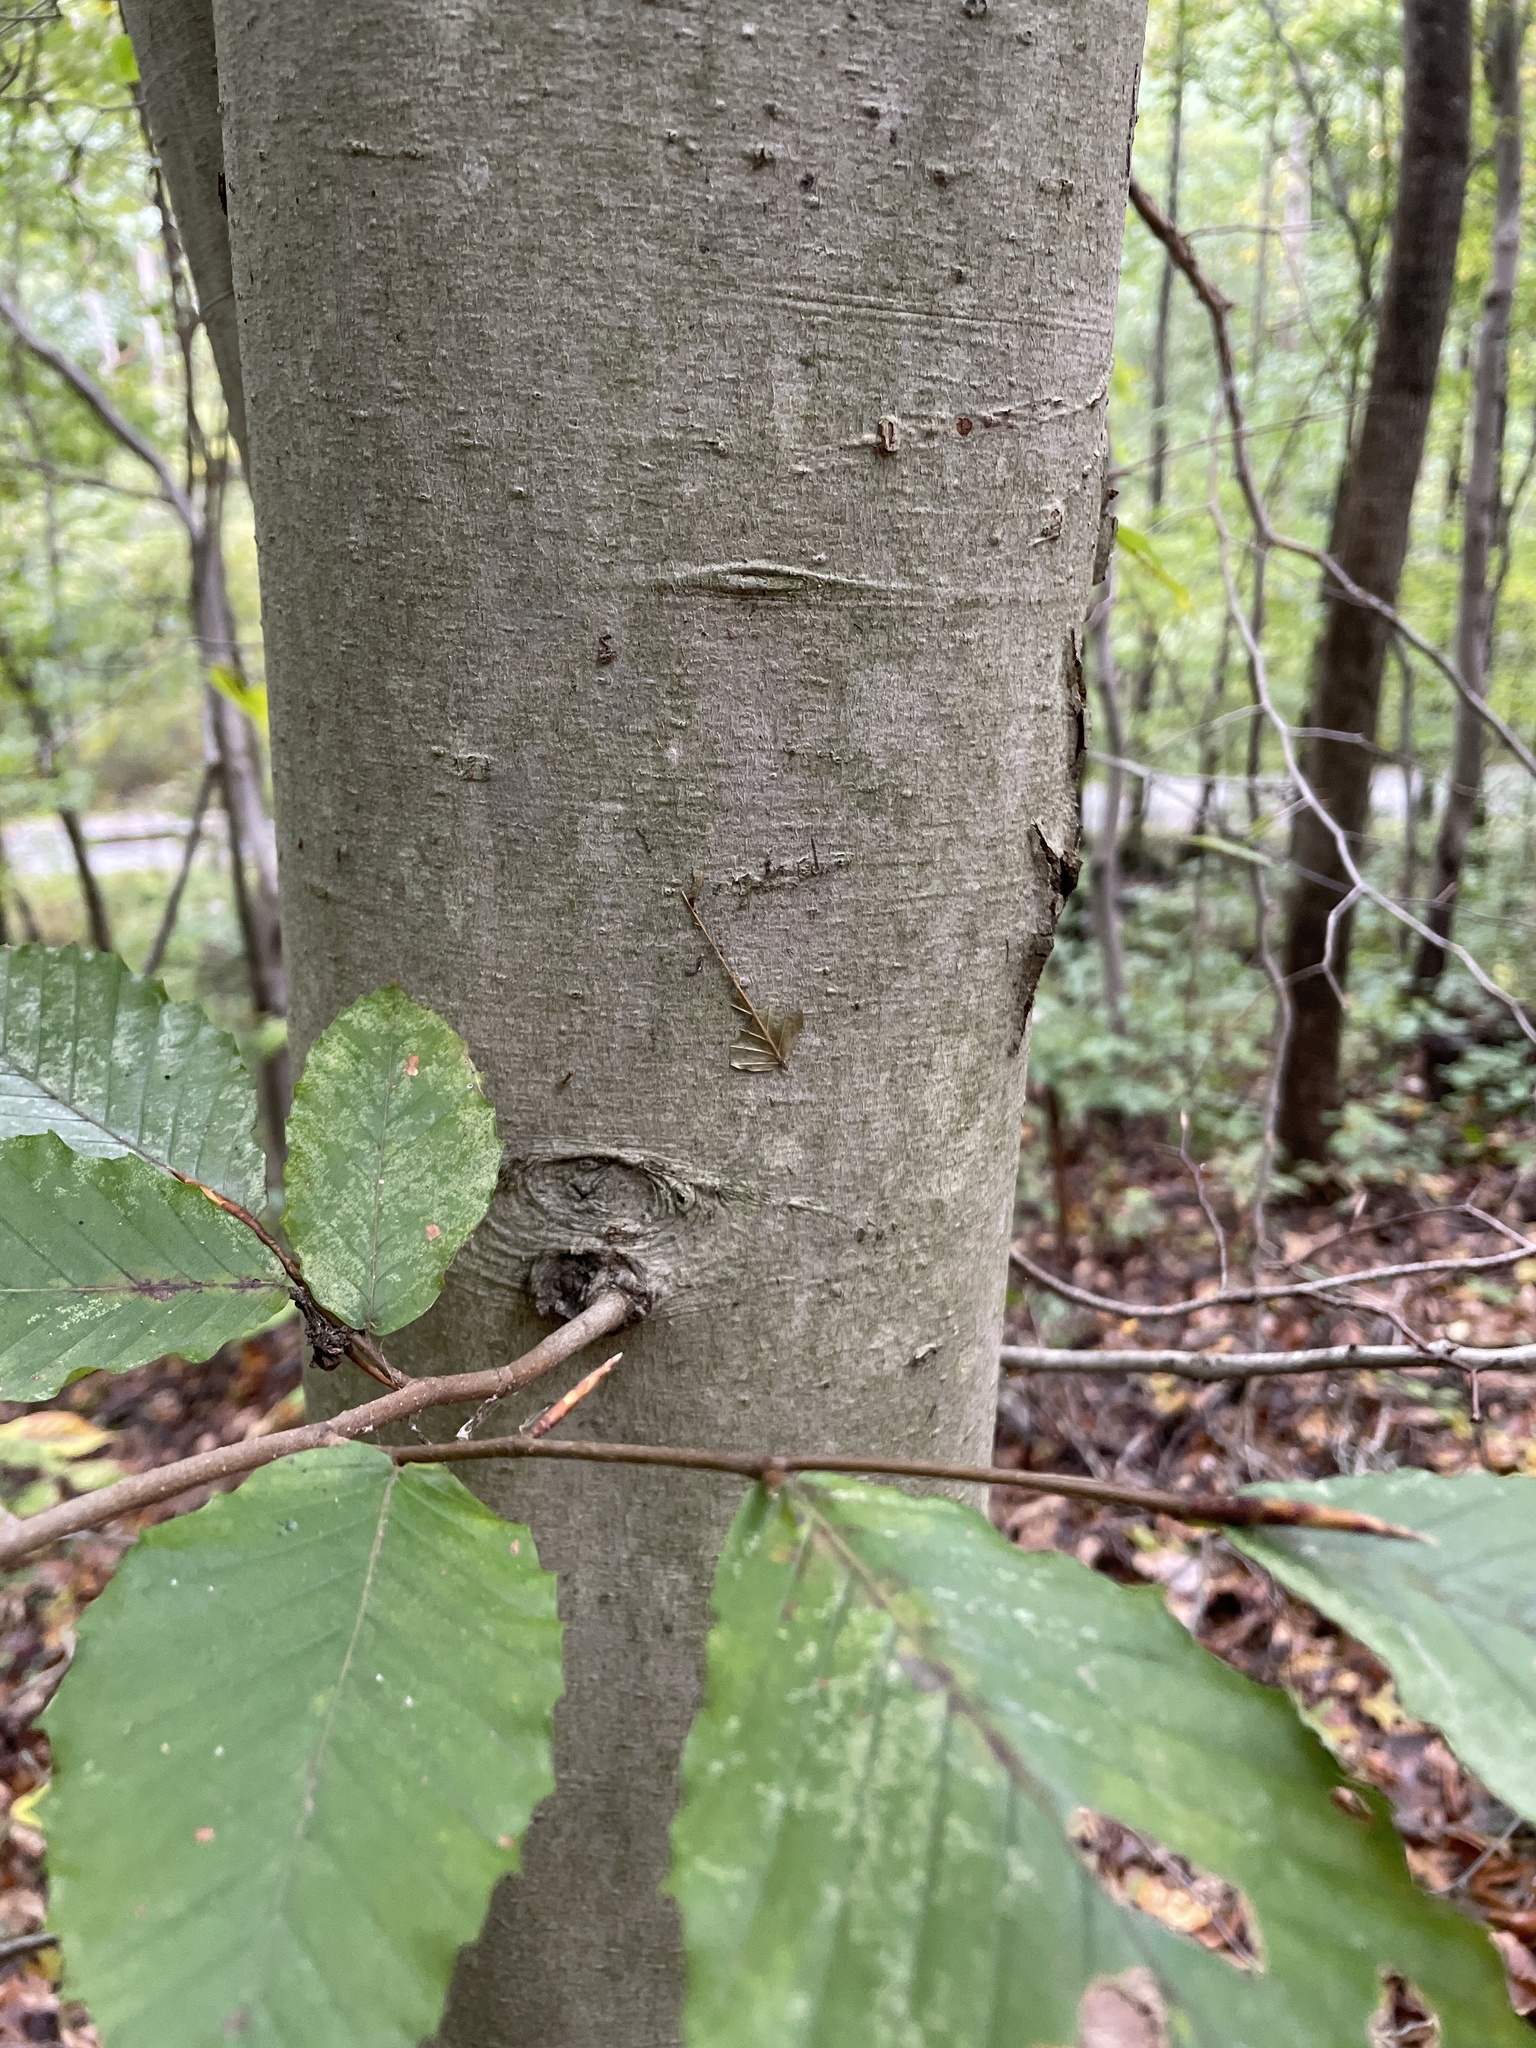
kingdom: Plantae
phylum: Tracheophyta
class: Magnoliopsida
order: Fagales
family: Fagaceae
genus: Fagus
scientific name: Fagus grandifolia
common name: American beech
